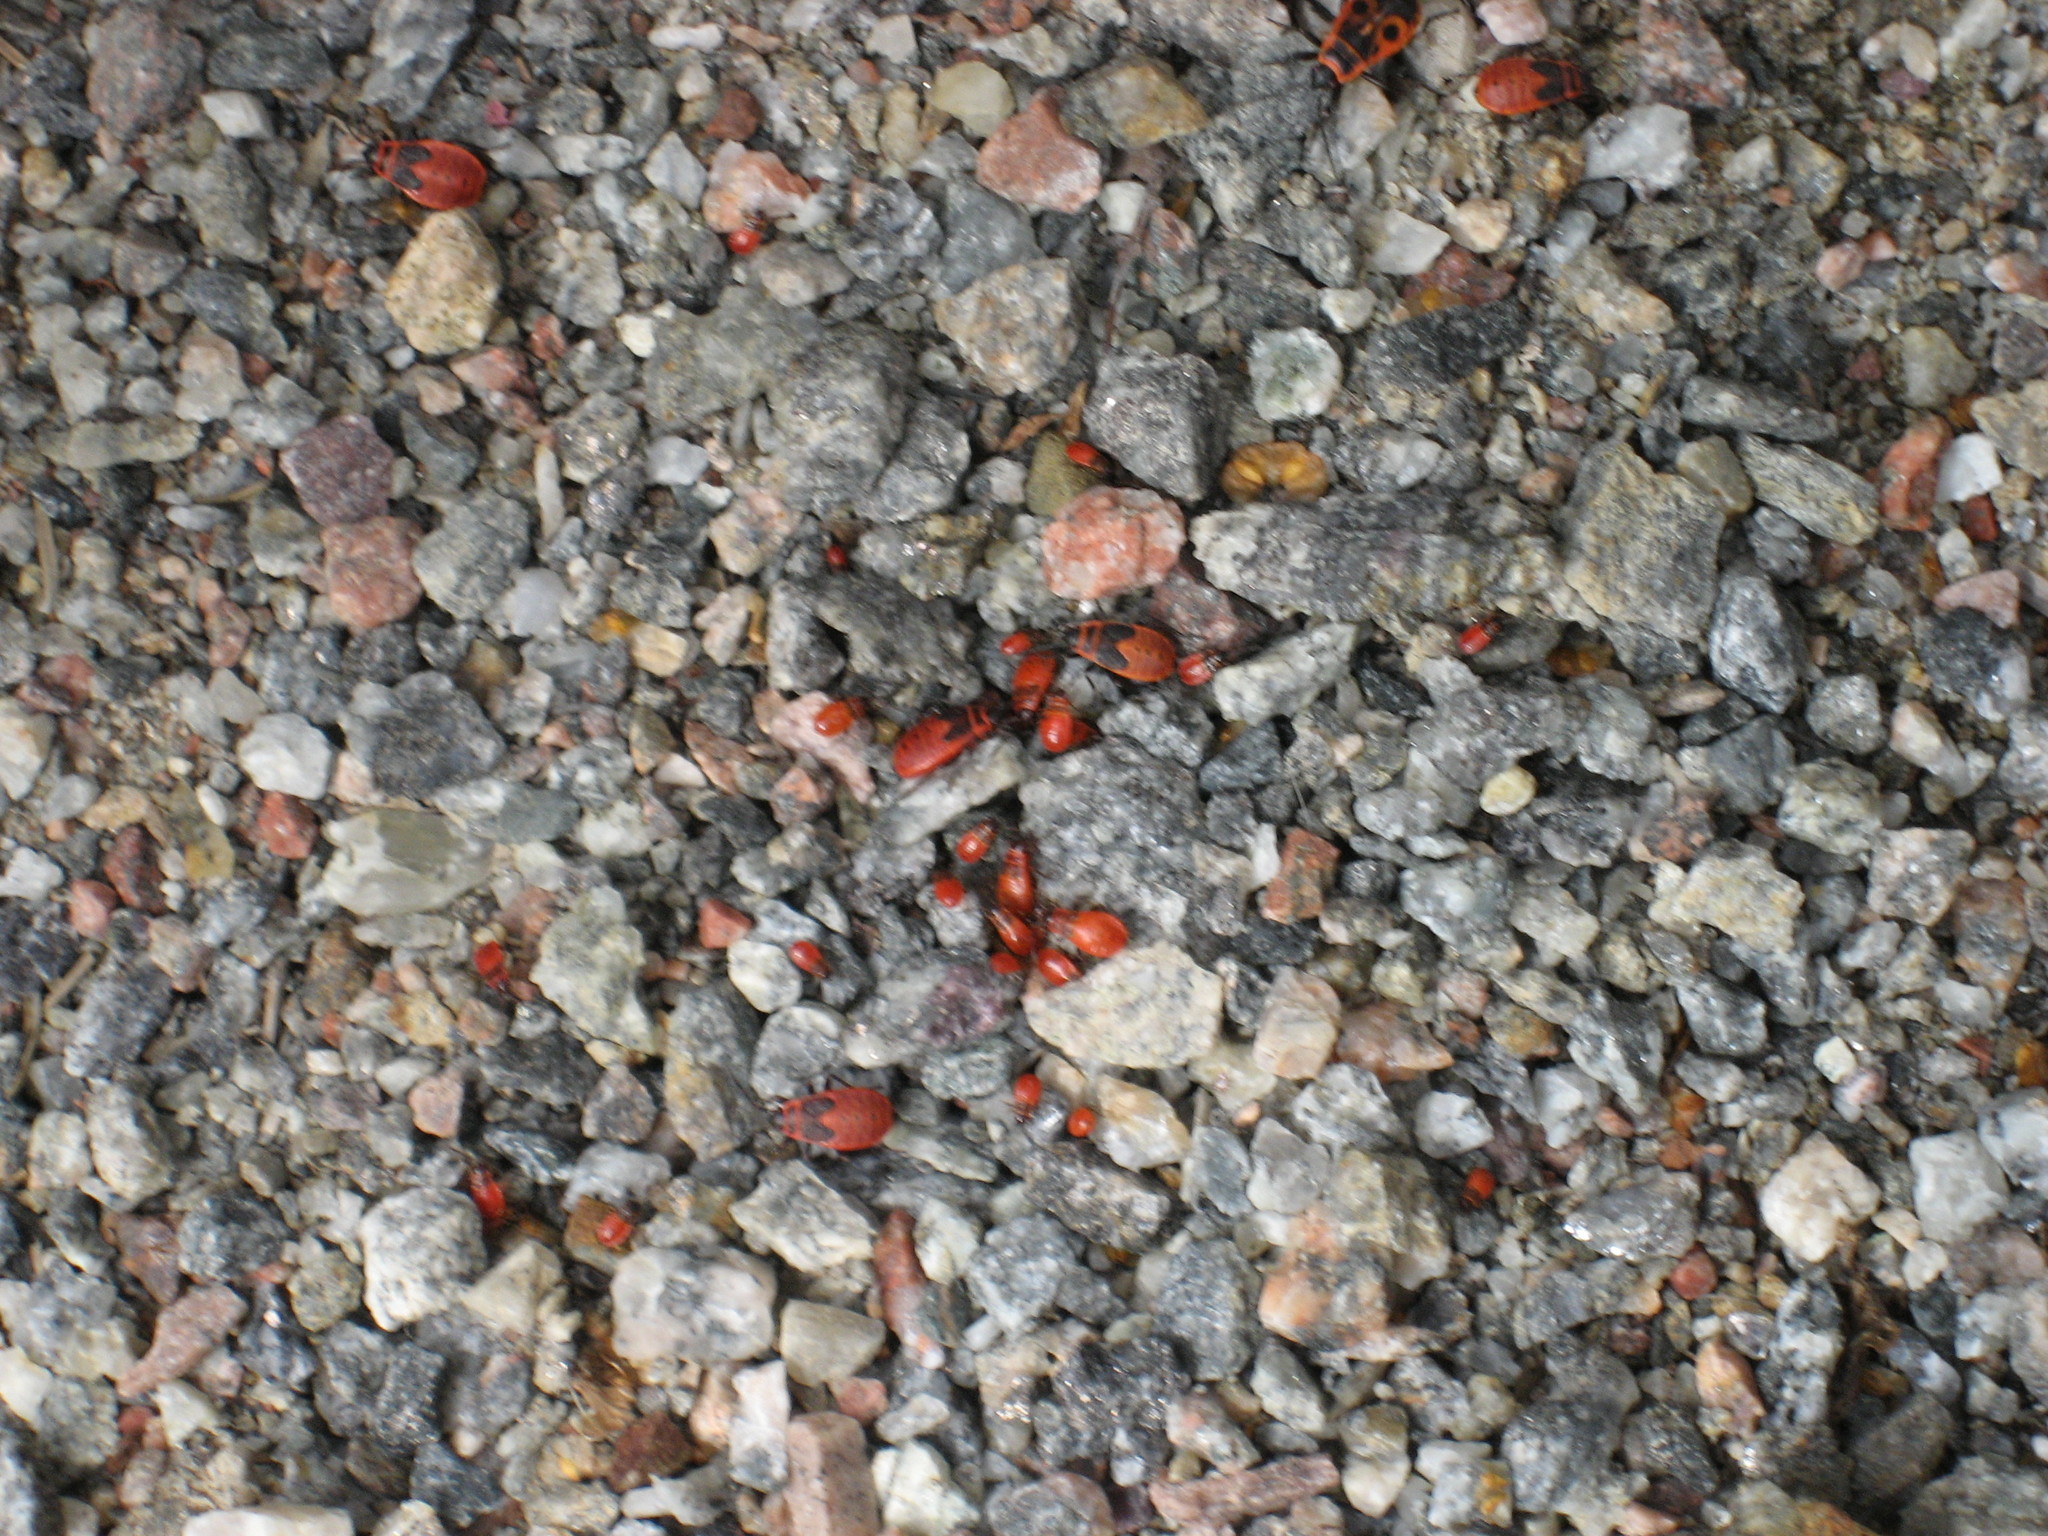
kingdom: Animalia
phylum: Arthropoda
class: Insecta
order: Hemiptera
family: Pyrrhocoridae
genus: Pyrrhocoris
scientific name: Pyrrhocoris apterus
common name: Firebug
